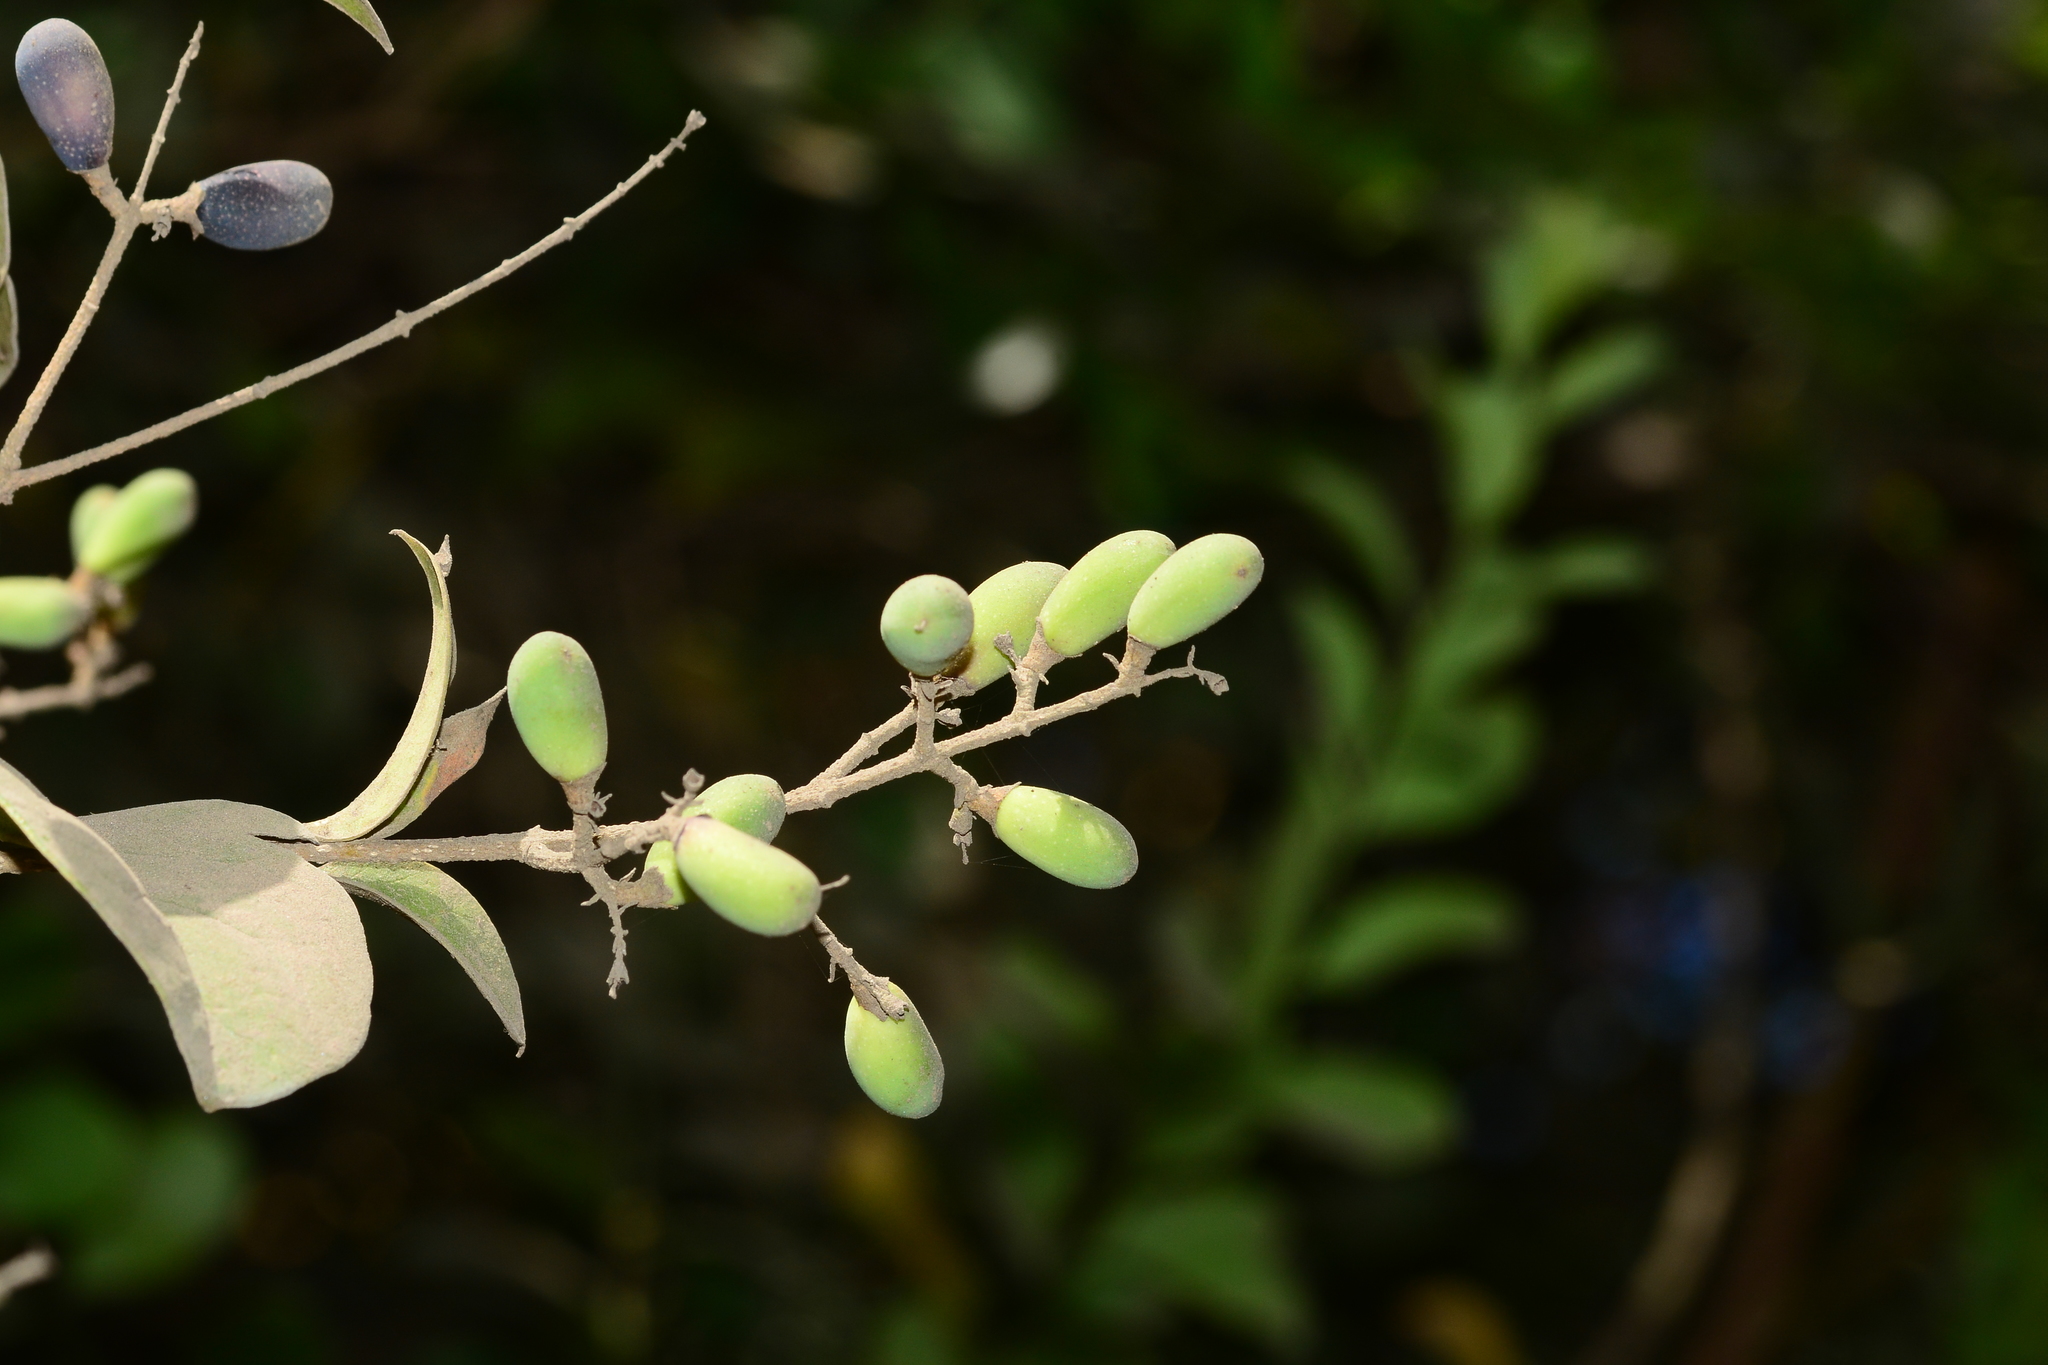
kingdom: Plantae
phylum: Tracheophyta
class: Magnoliopsida
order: Lamiales
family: Oleaceae
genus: Ligustrum
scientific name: Ligustrum robustum
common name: Tree privet
